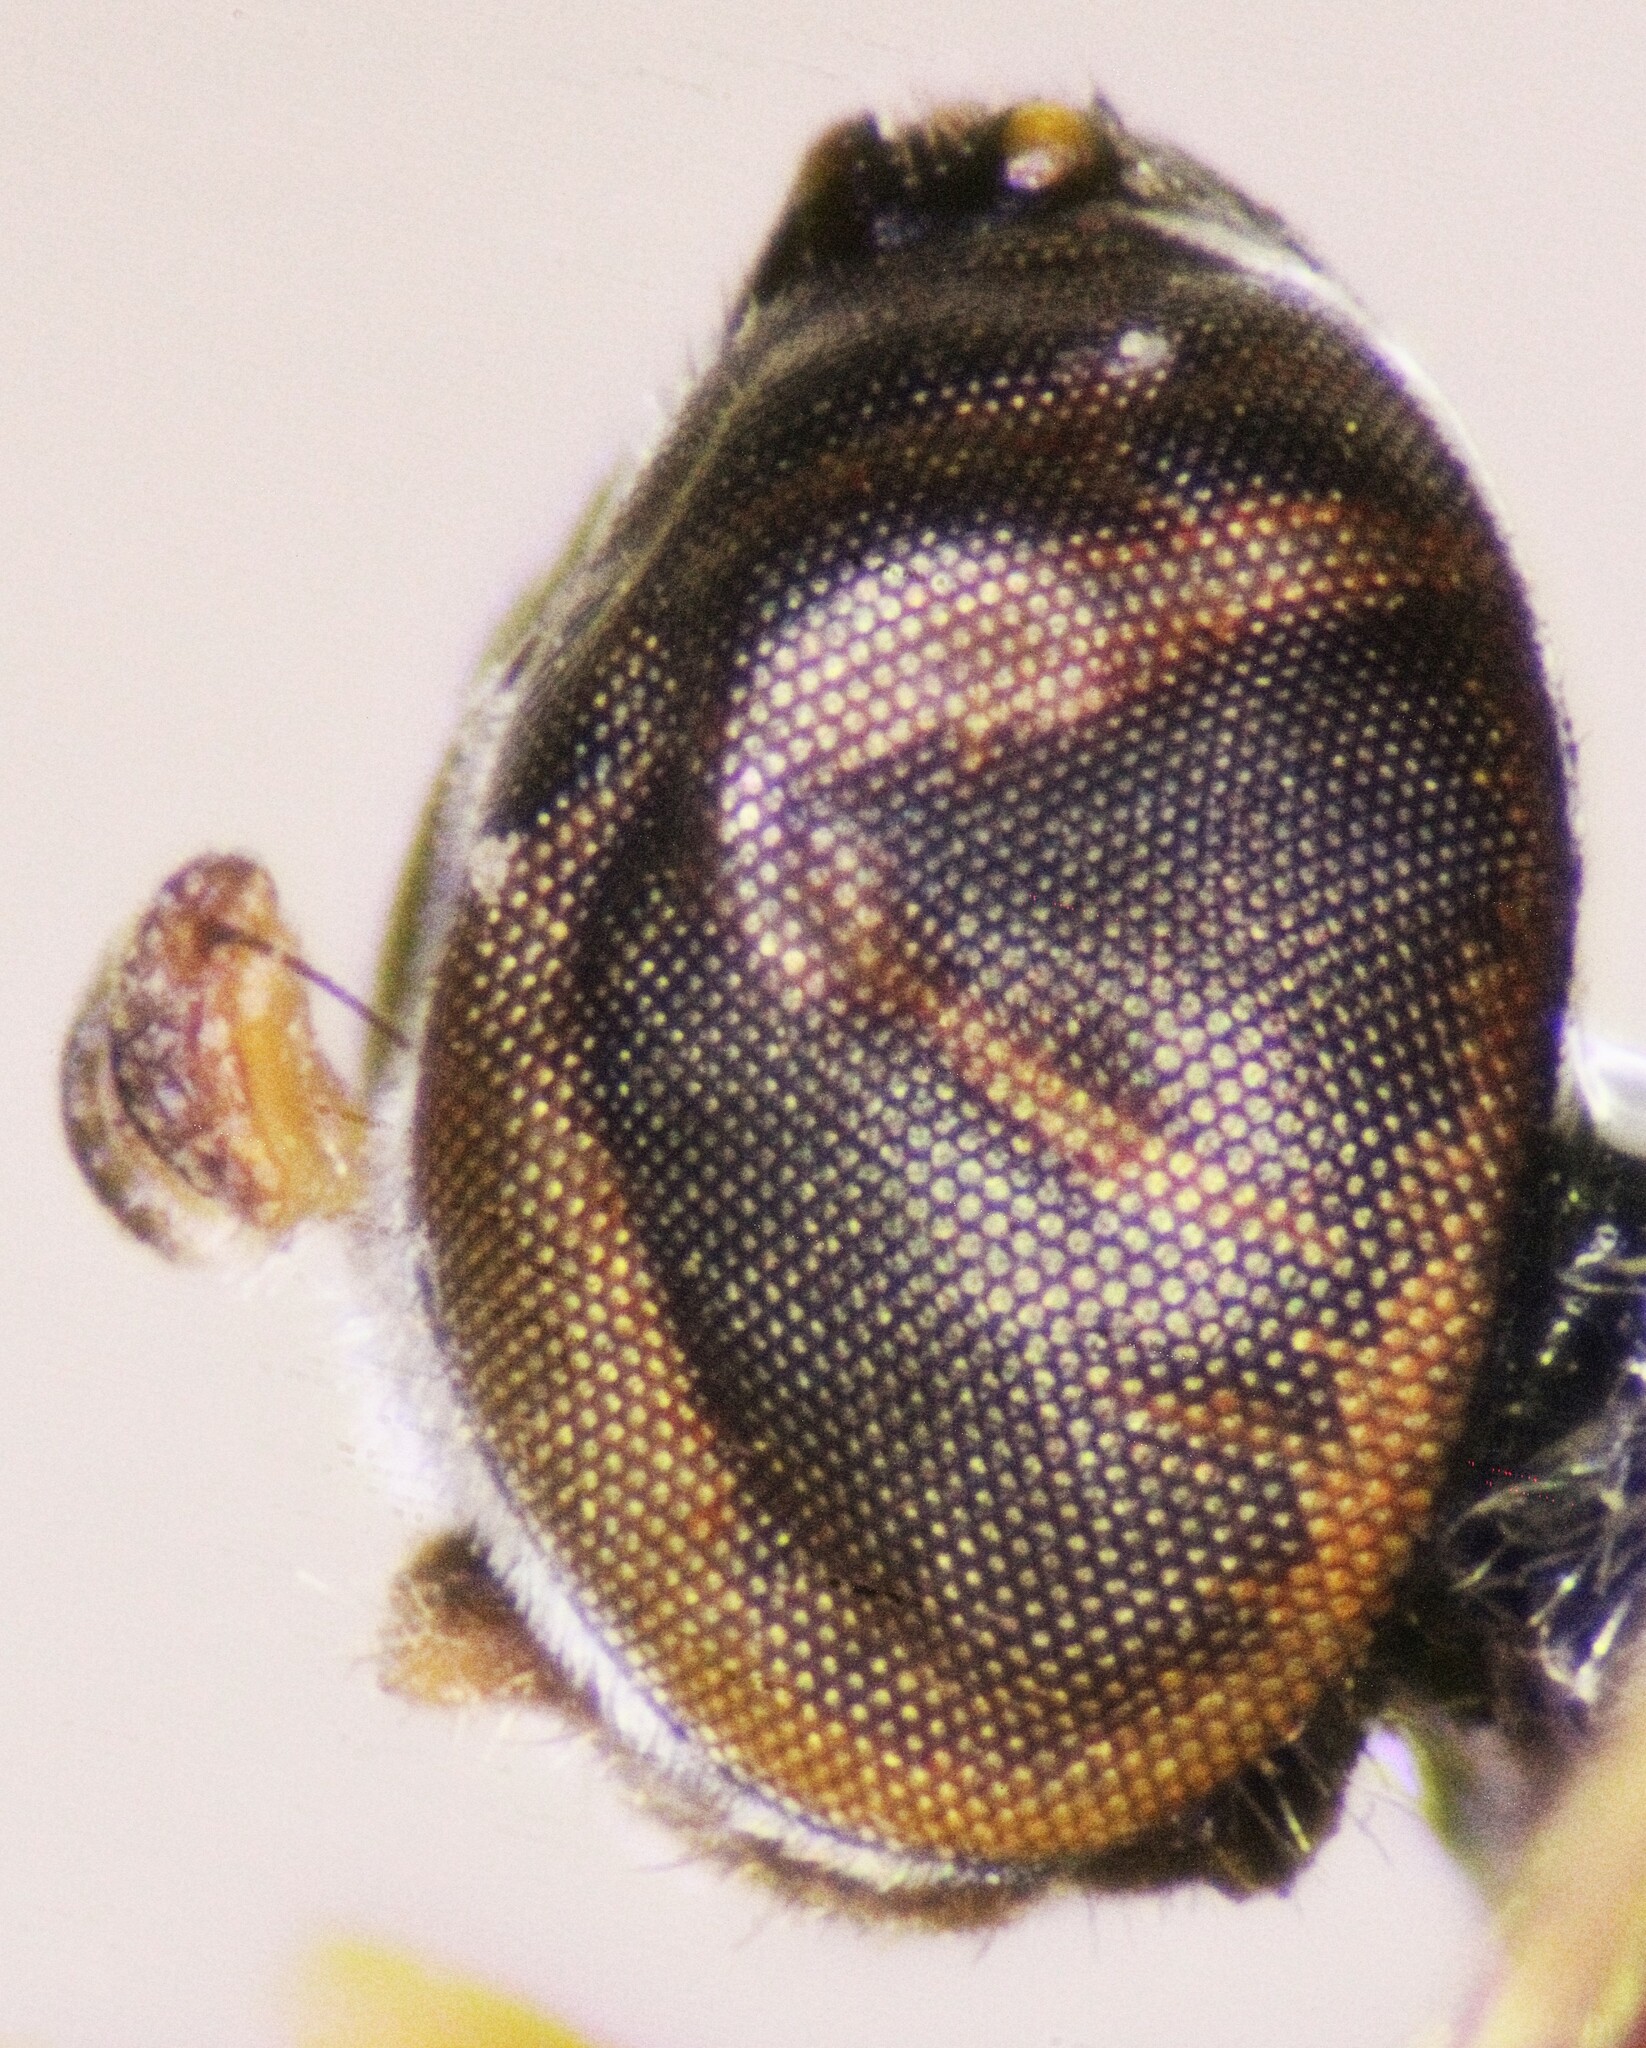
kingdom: Animalia
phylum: Arthropoda
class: Insecta
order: Diptera
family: Stratiomyidae
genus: Eidalimus
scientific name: Eidalimus annulatus
